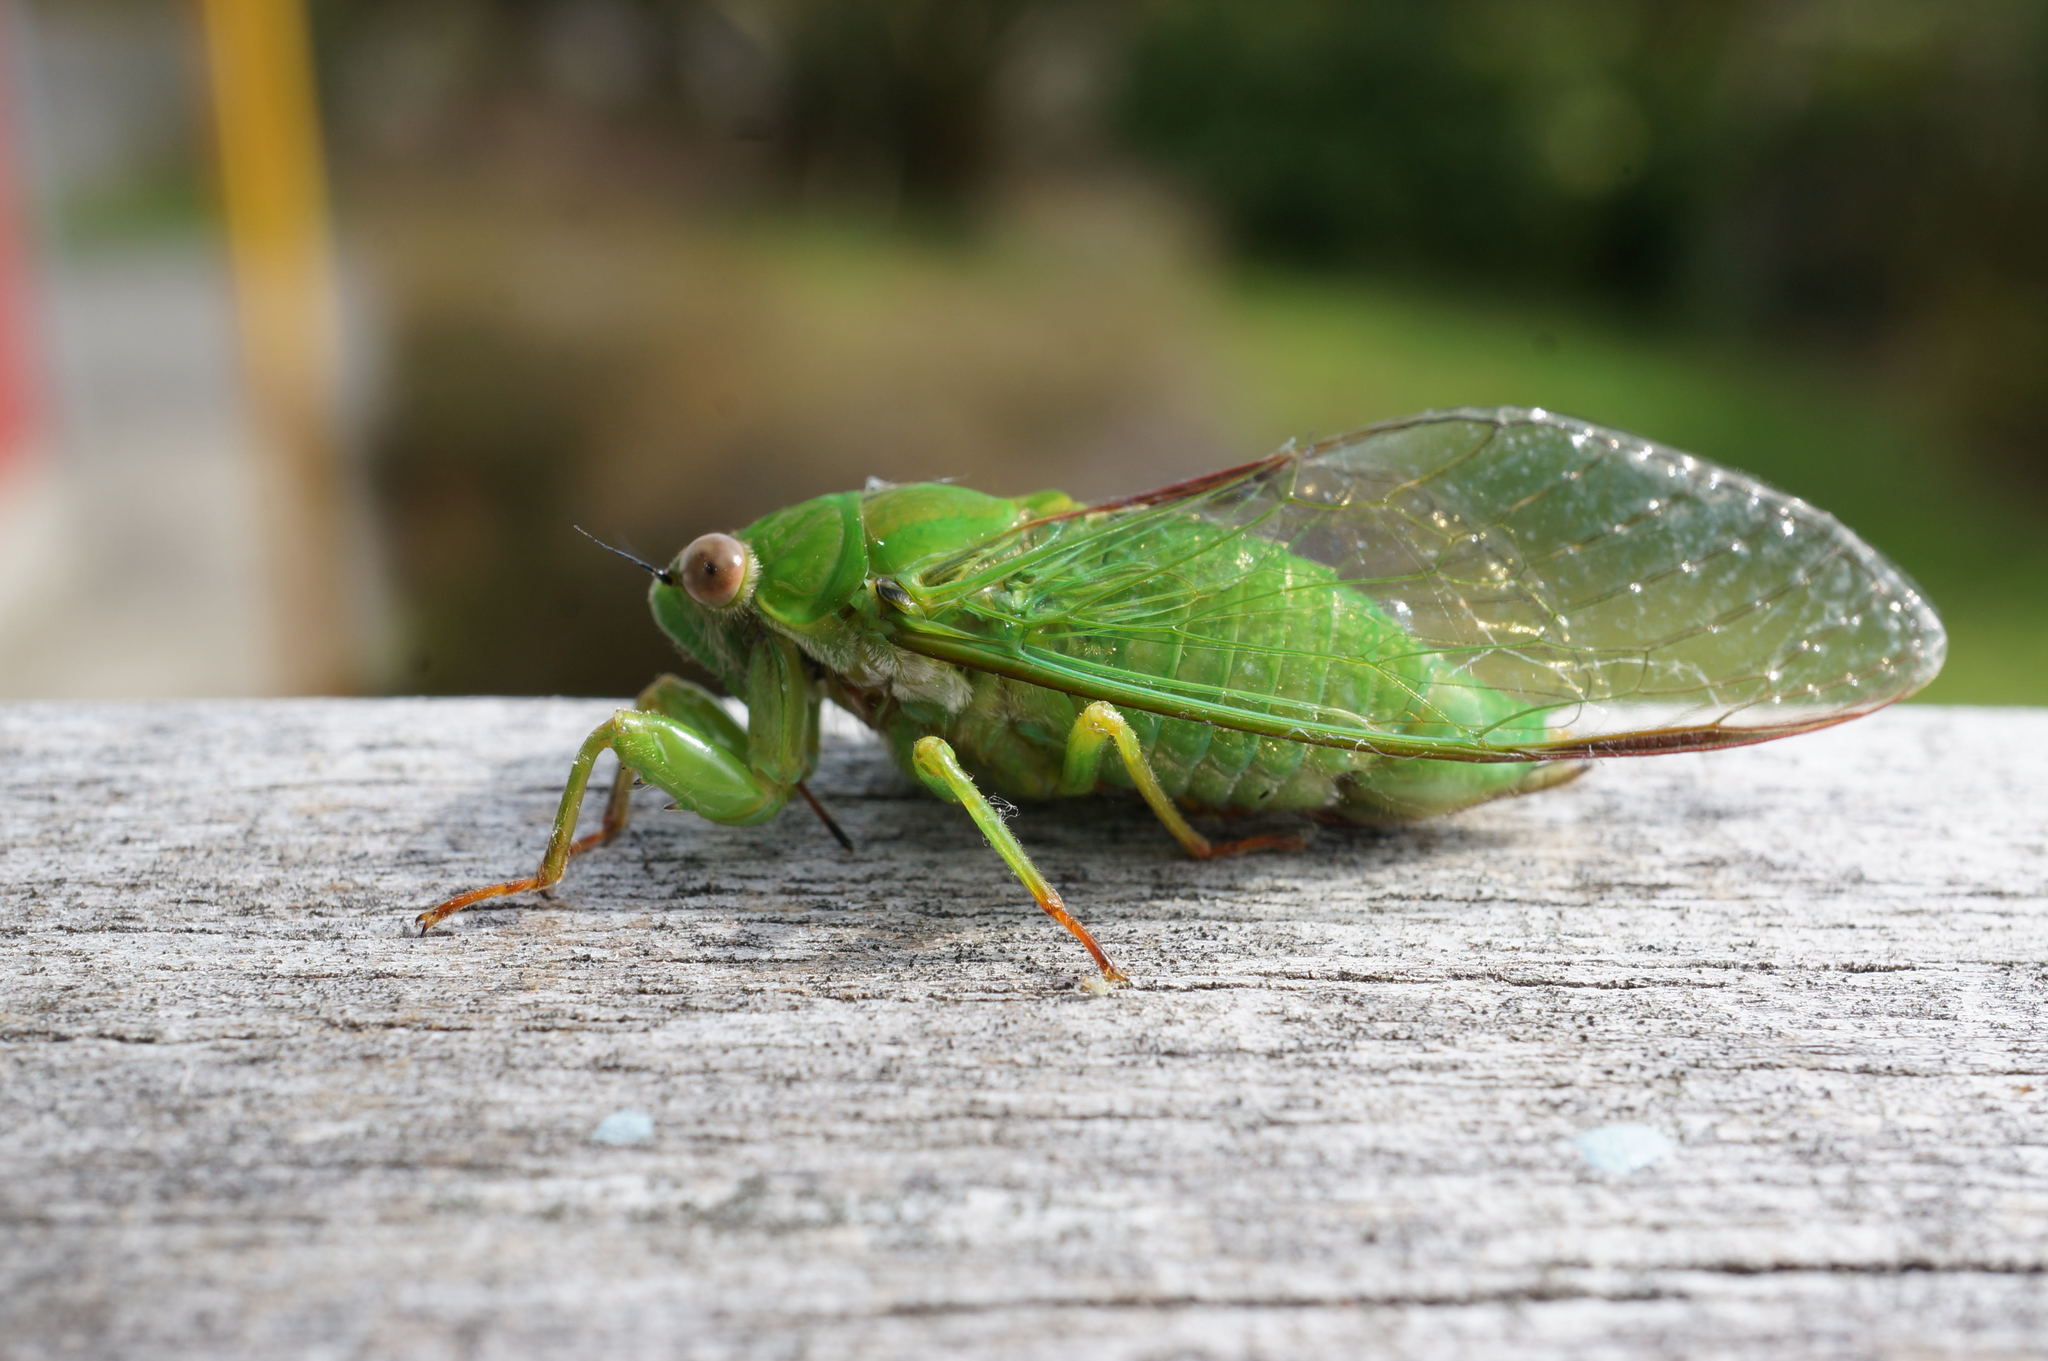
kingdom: Animalia
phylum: Arthropoda
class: Insecta
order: Hemiptera
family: Cicadidae
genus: Kikihia
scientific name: Kikihia ochrina
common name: April green cicada
